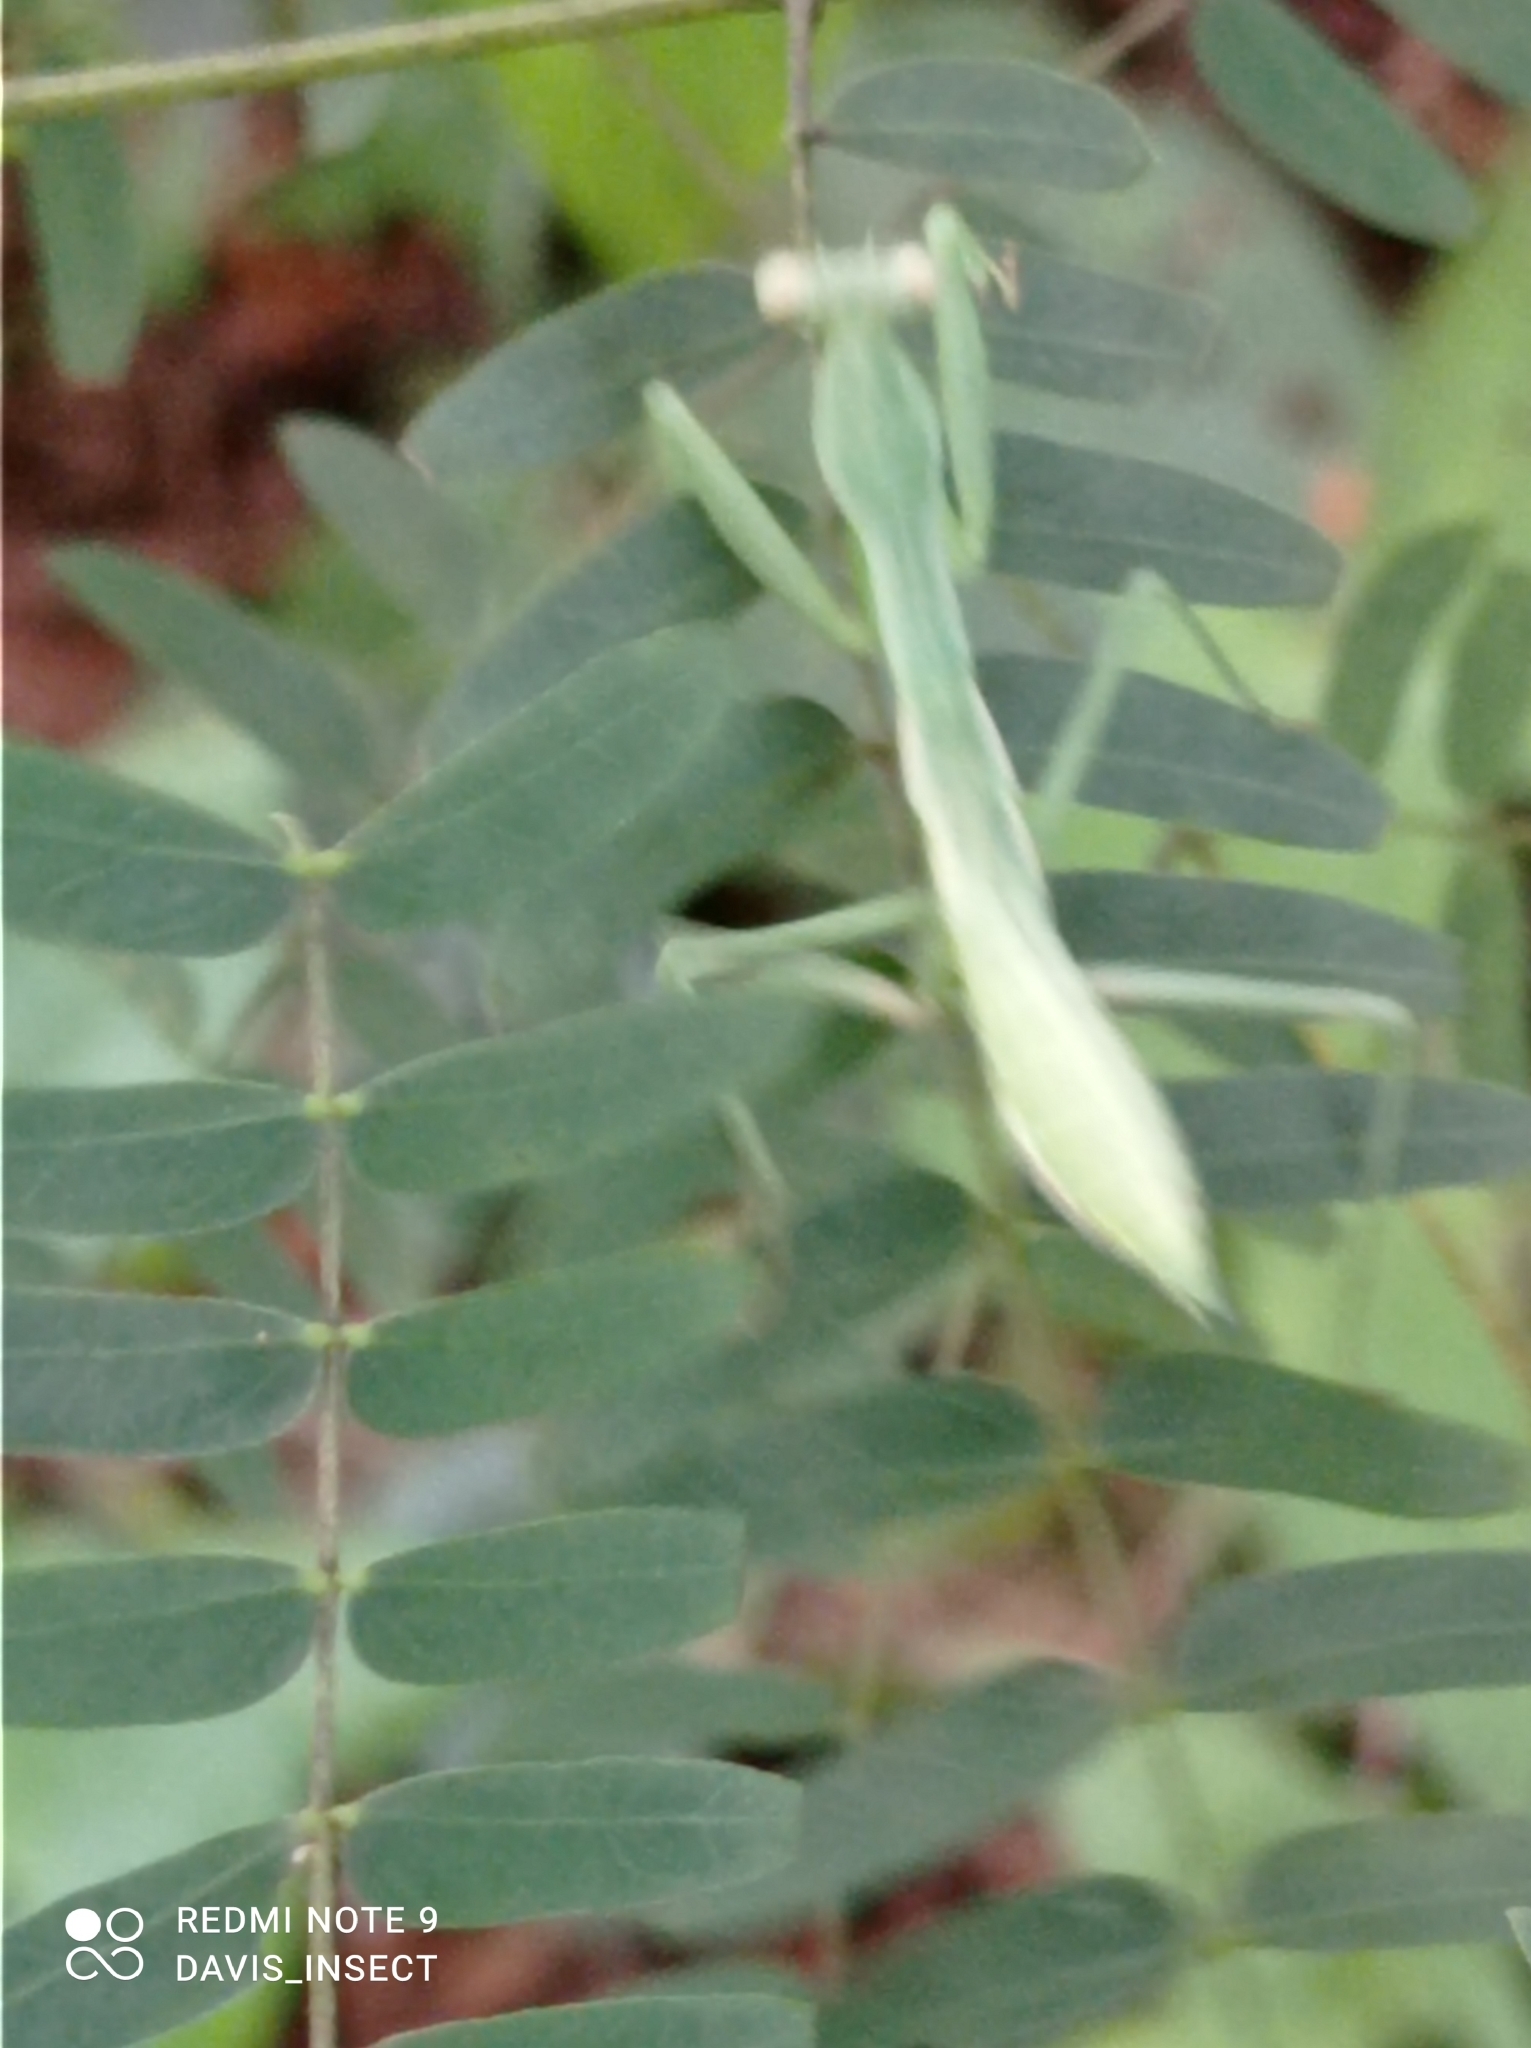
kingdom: Animalia
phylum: Arthropoda
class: Insecta
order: Mantodea
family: Mantidae
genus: Hierodula
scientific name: Hierodula timorensis
